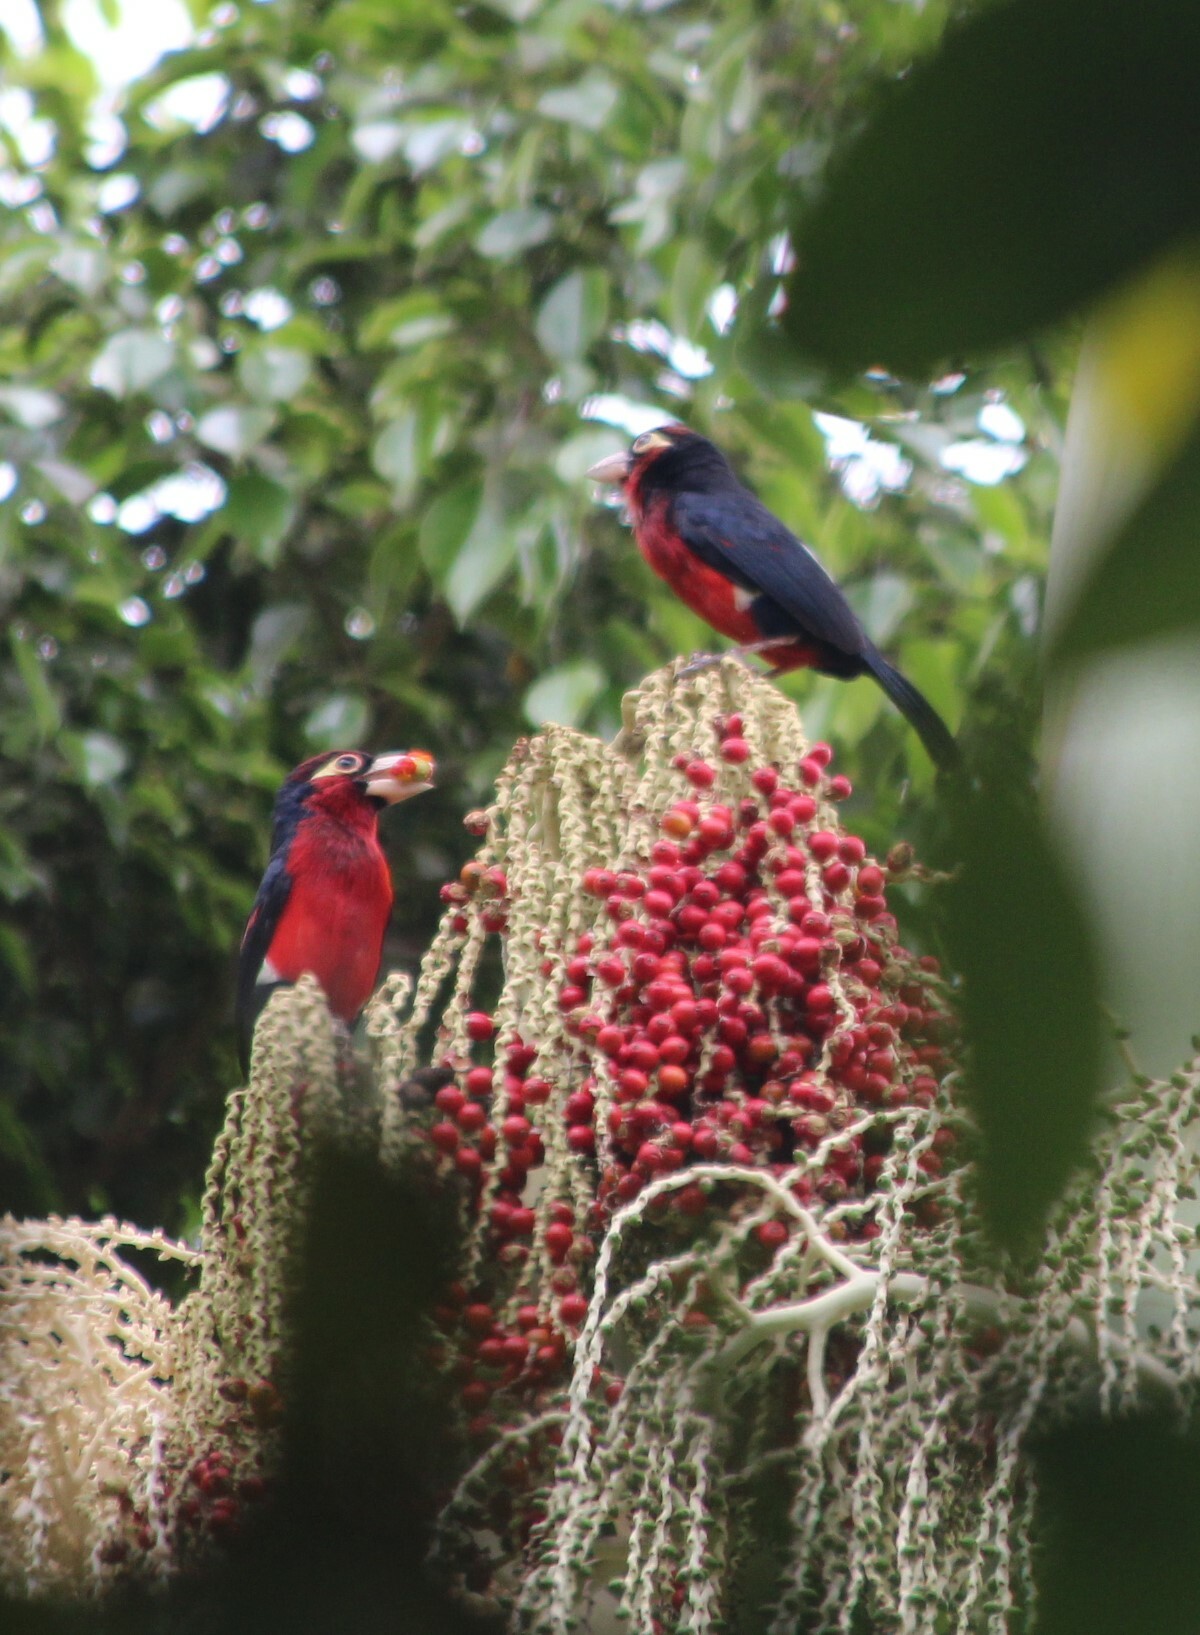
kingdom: Animalia
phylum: Chordata
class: Aves
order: Piciformes
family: Lybiidae
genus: Lybius
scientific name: Lybius bidentatus
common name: Double-toothed barbet
